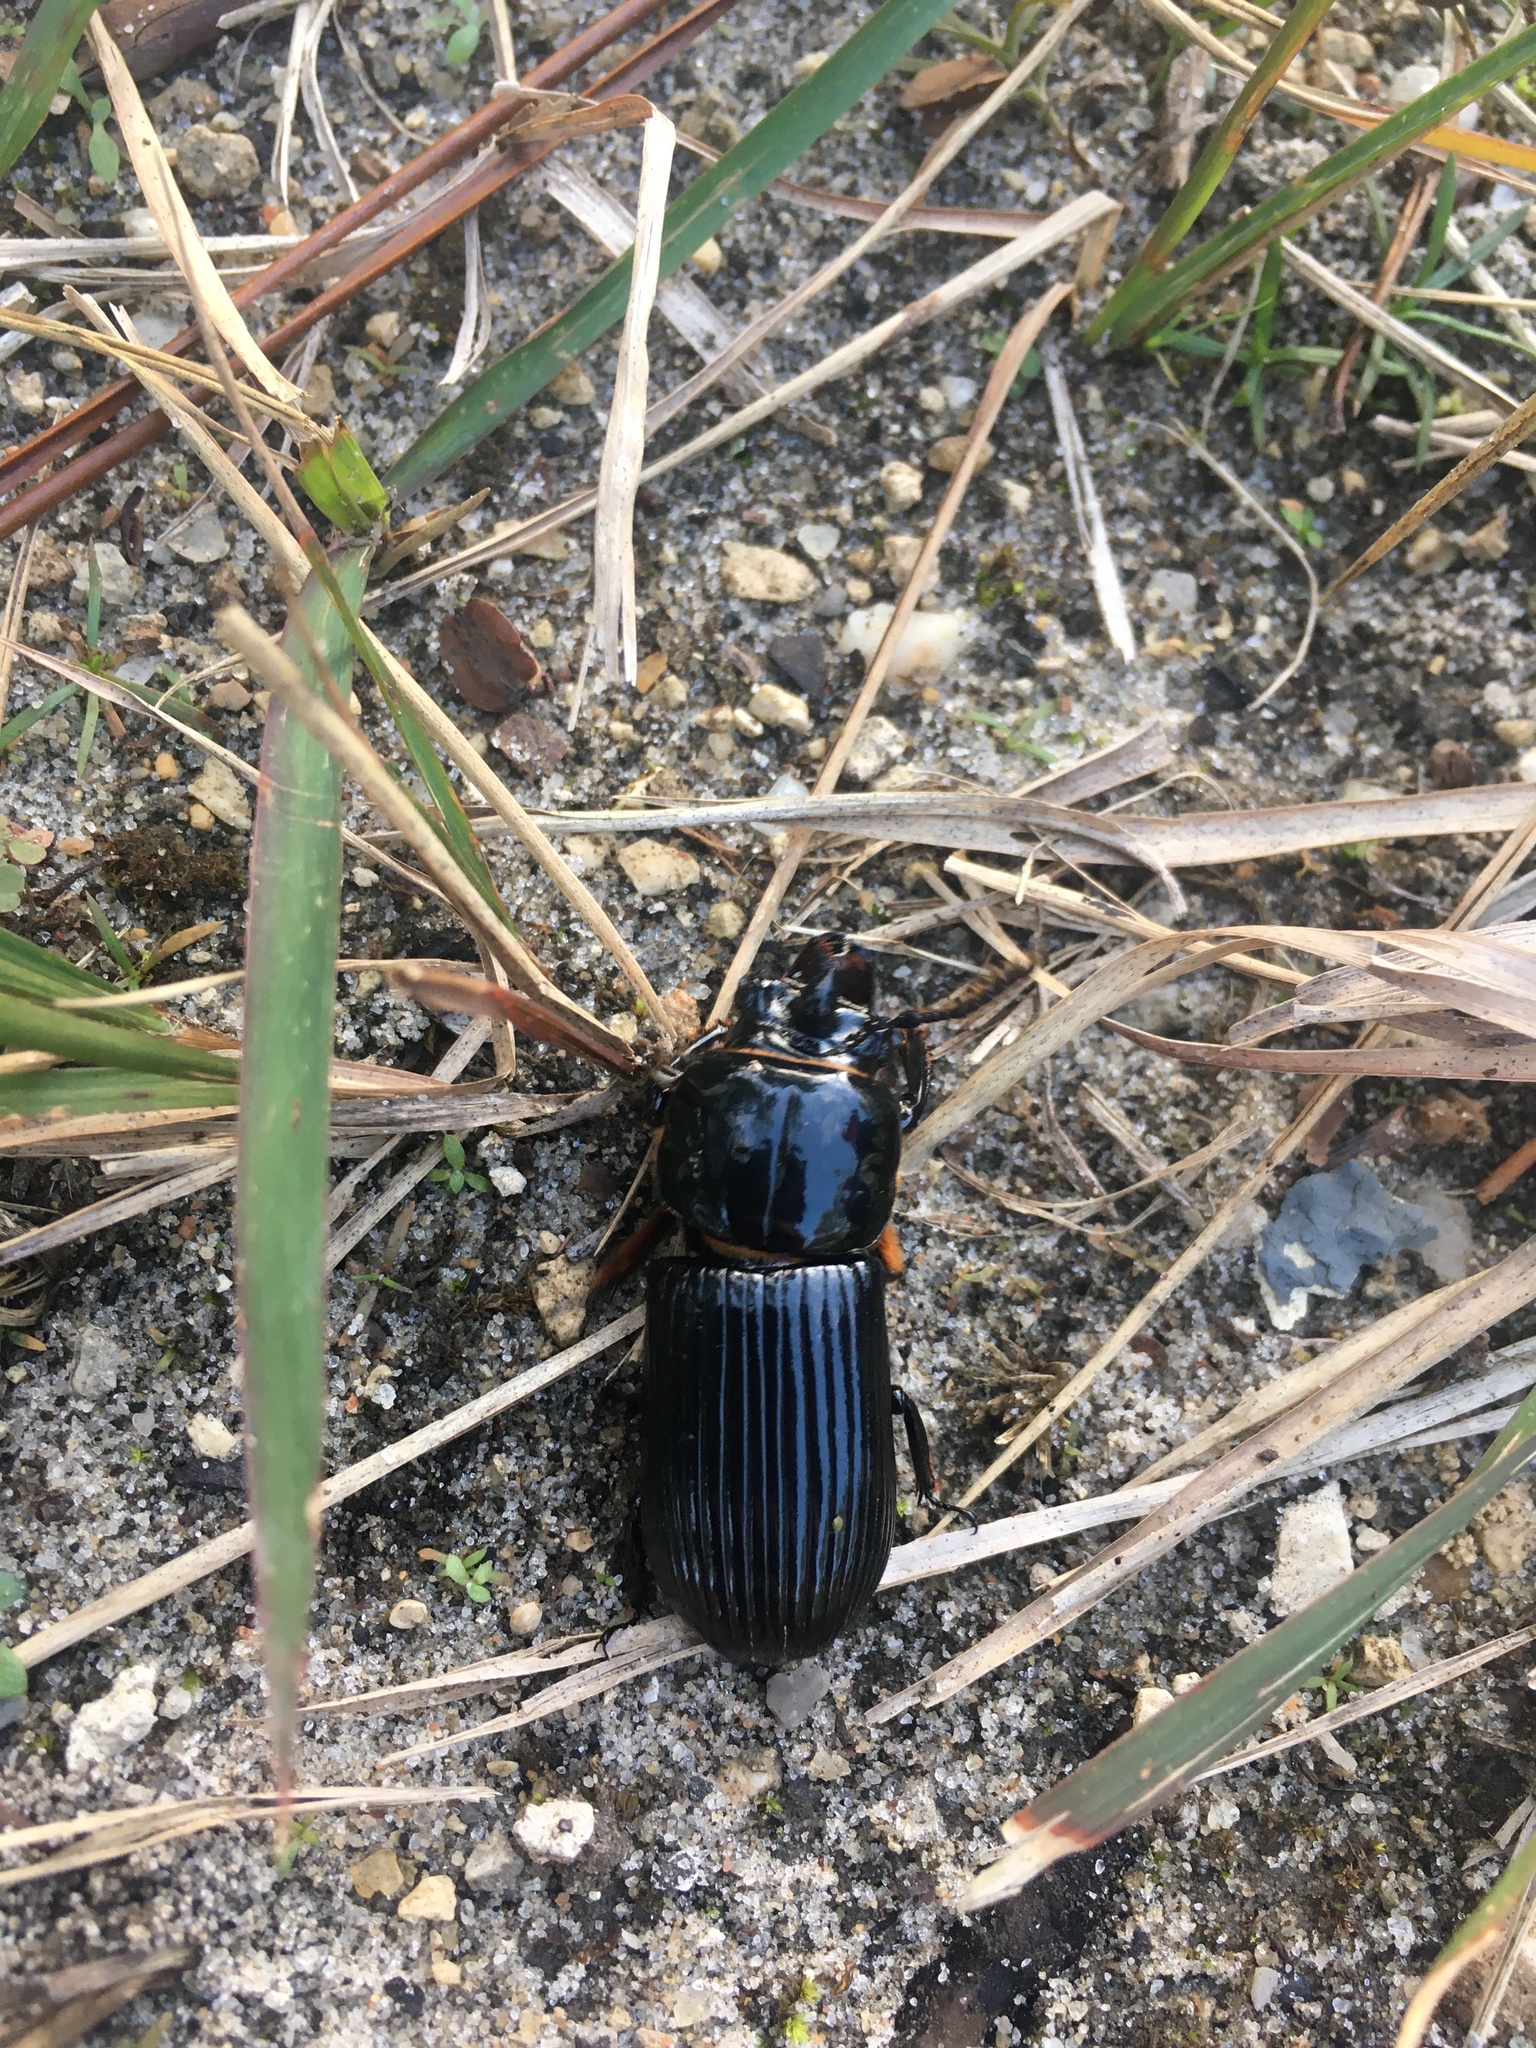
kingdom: Animalia
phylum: Arthropoda
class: Insecta
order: Coleoptera
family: Passalidae
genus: Odontotaenius
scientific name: Odontotaenius disjunctus
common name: Patent leather beetle
